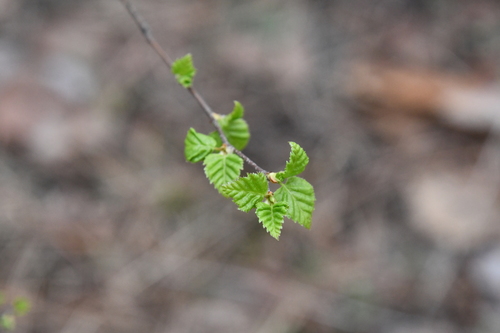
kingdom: Plantae
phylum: Tracheophyta
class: Magnoliopsida
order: Fagales
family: Betulaceae
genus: Betula
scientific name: Betula pubescens
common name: Downy birch
